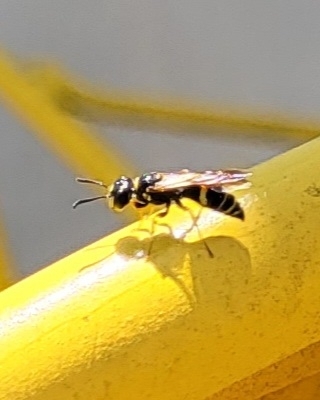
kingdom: Animalia
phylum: Arthropoda
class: Insecta
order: Hymenoptera
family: Crabronidae
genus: Philanthus
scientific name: Philanthus gibbosus
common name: Humped beewolf
